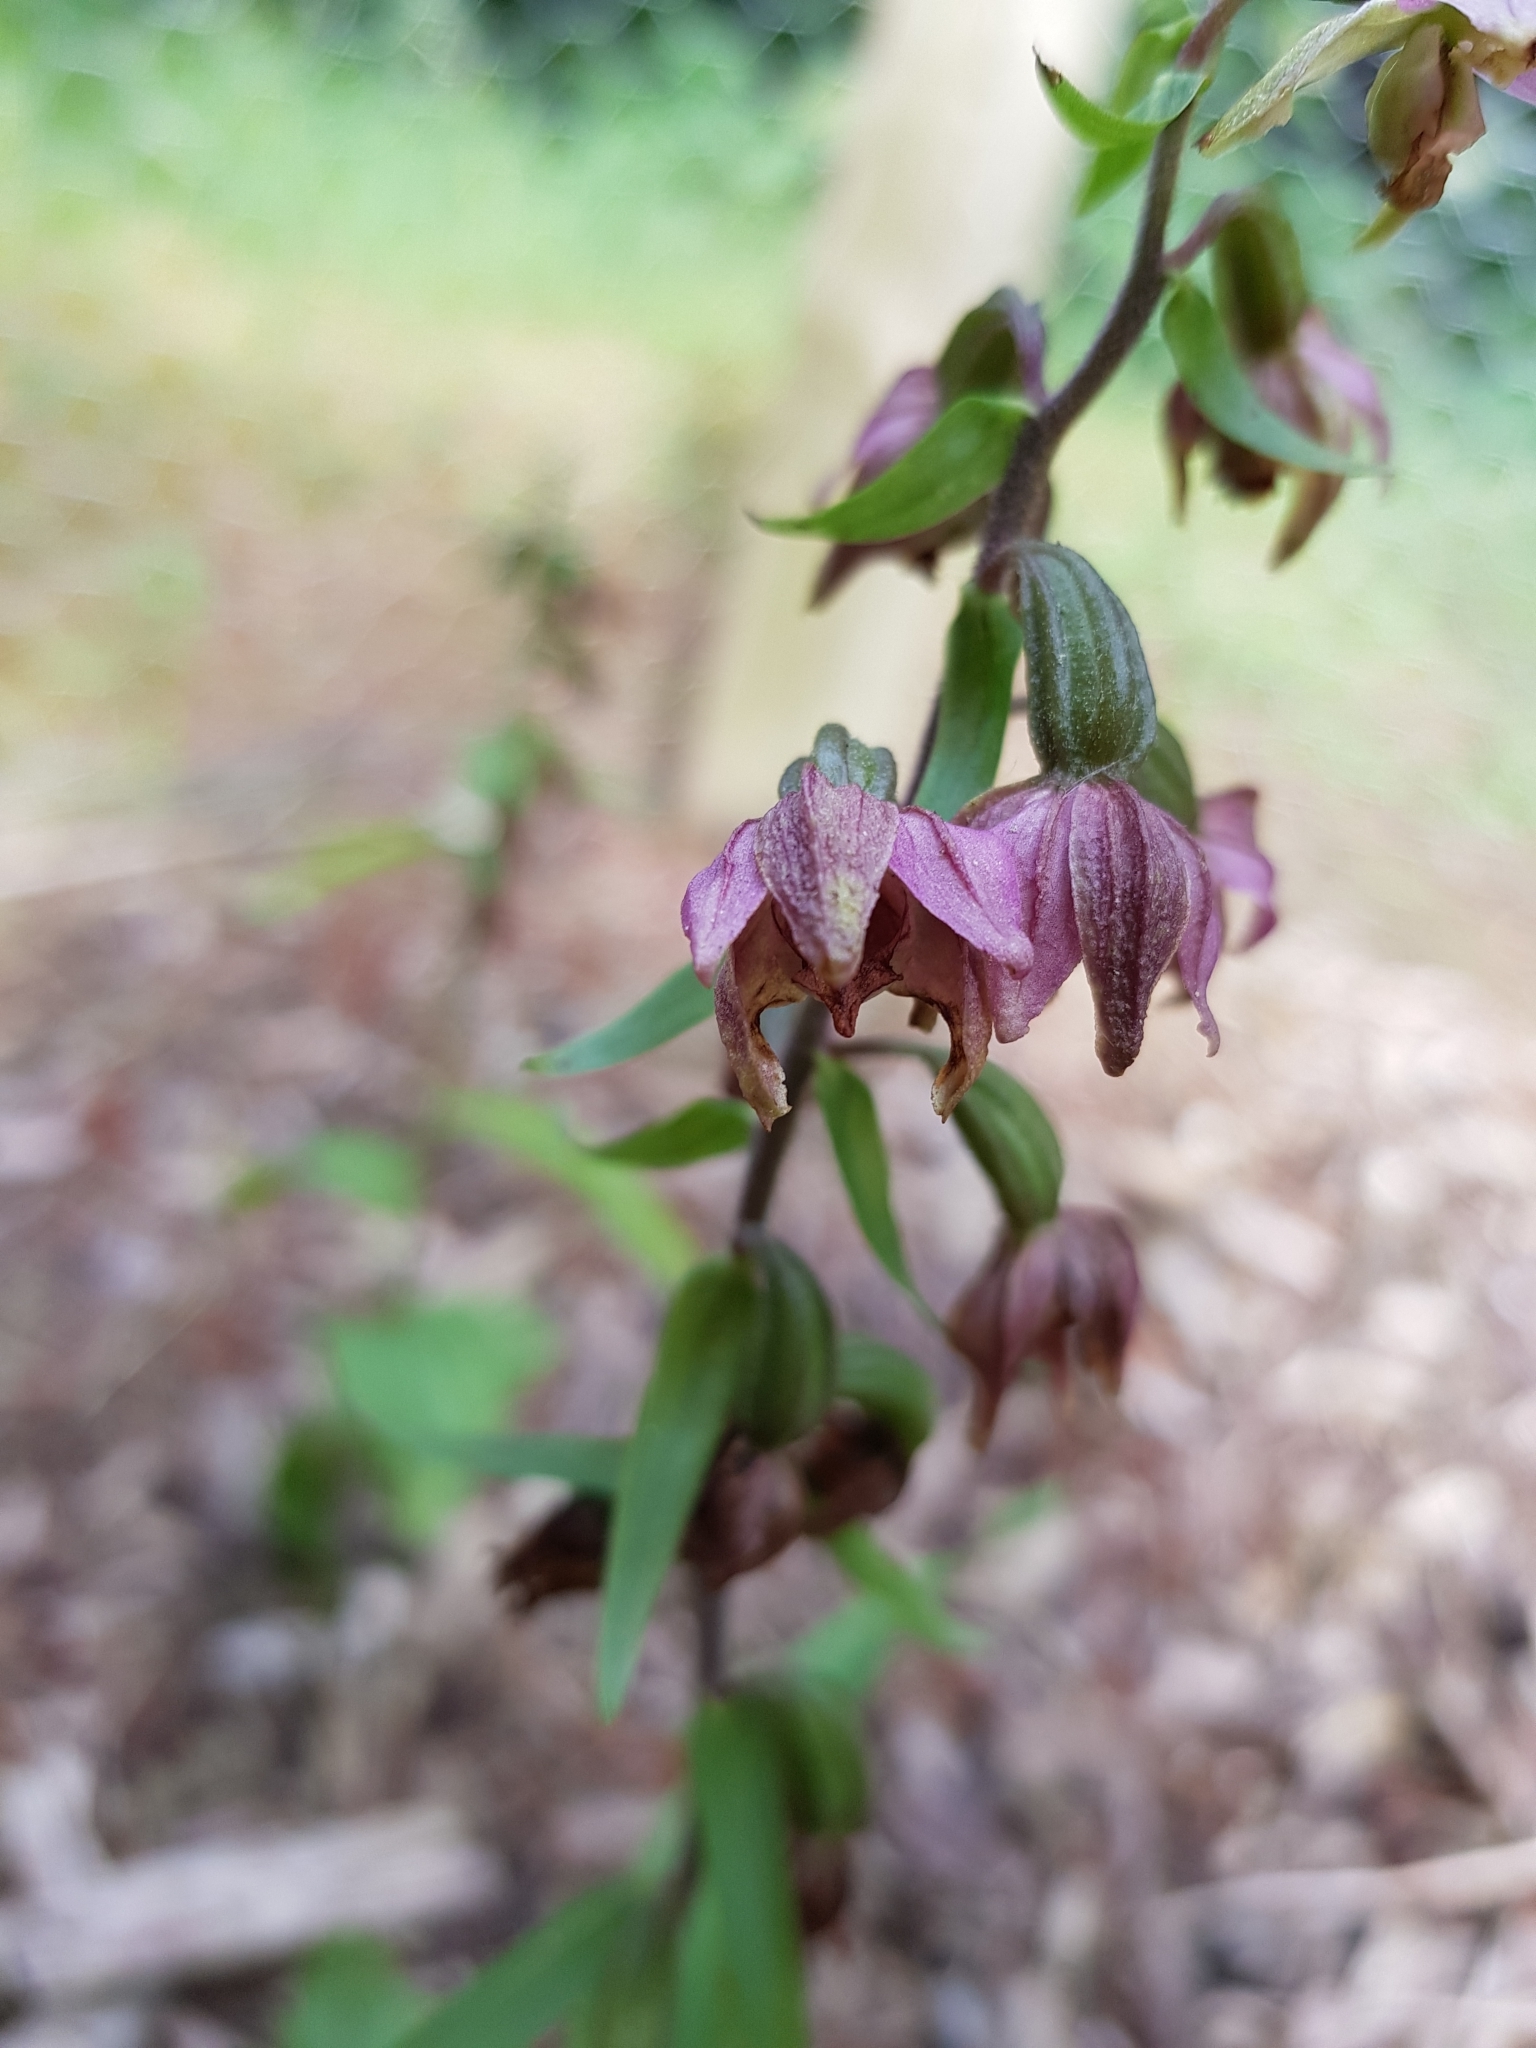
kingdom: Plantae
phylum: Tracheophyta
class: Liliopsida
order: Asparagales
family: Orchidaceae
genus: Epipactis
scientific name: Epipactis helleborine
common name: Broad-leaved helleborine
